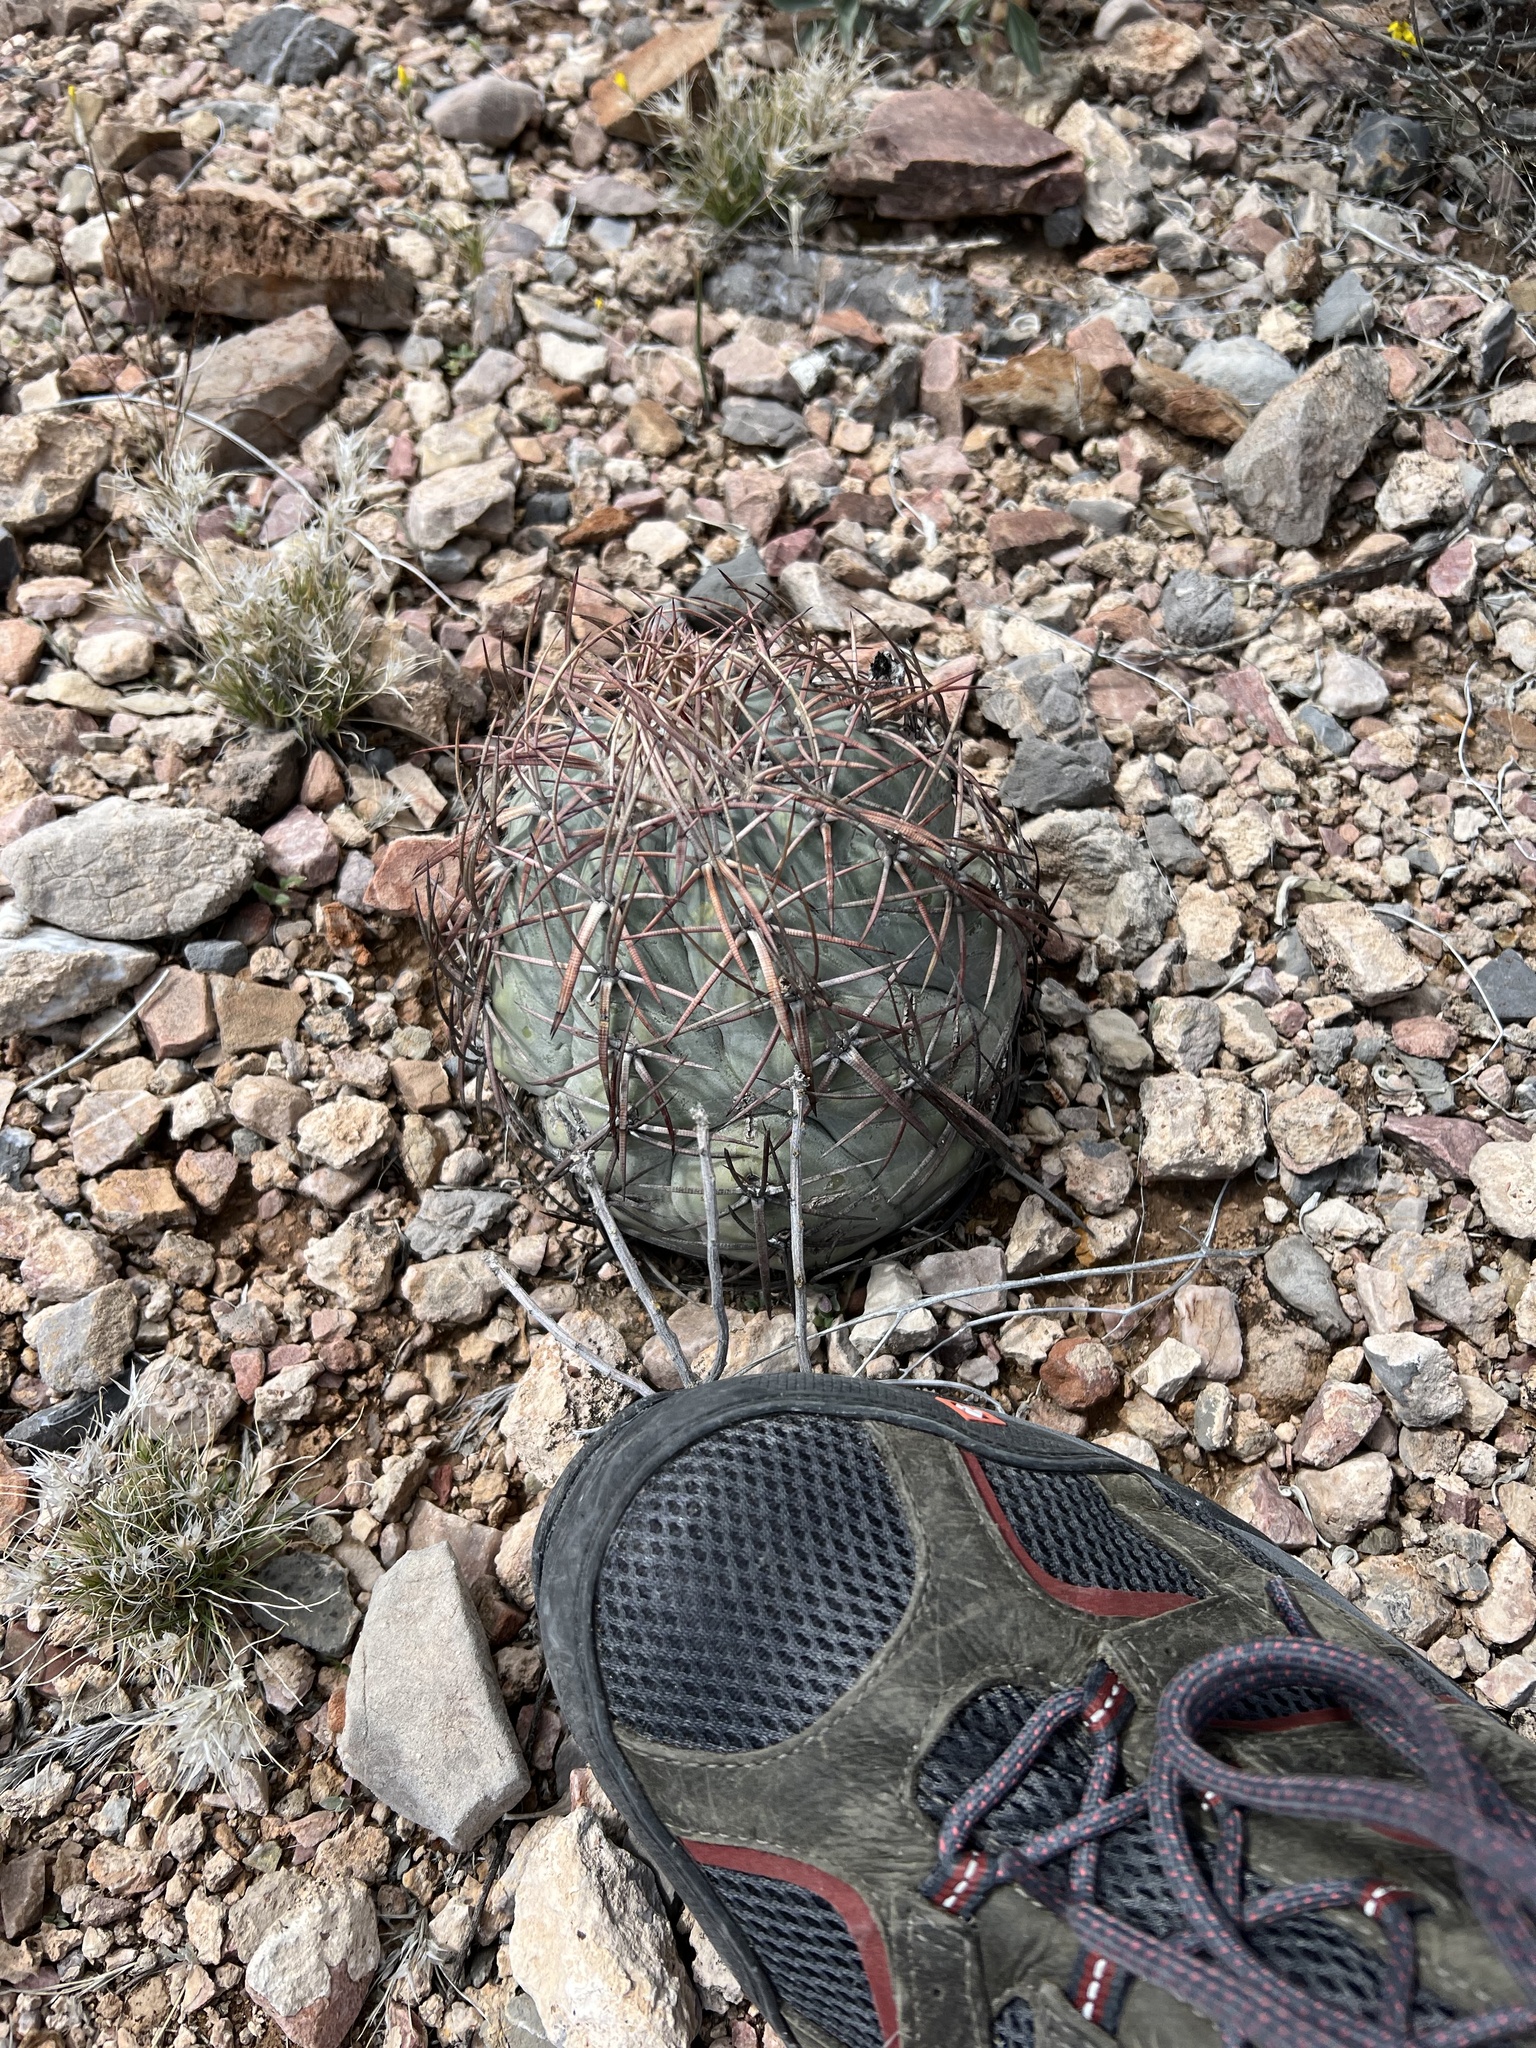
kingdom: Plantae
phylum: Tracheophyta
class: Magnoliopsida
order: Caryophyllales
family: Cactaceae
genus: Echinocactus
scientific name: Echinocactus horizonthalonius
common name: Devilshead
